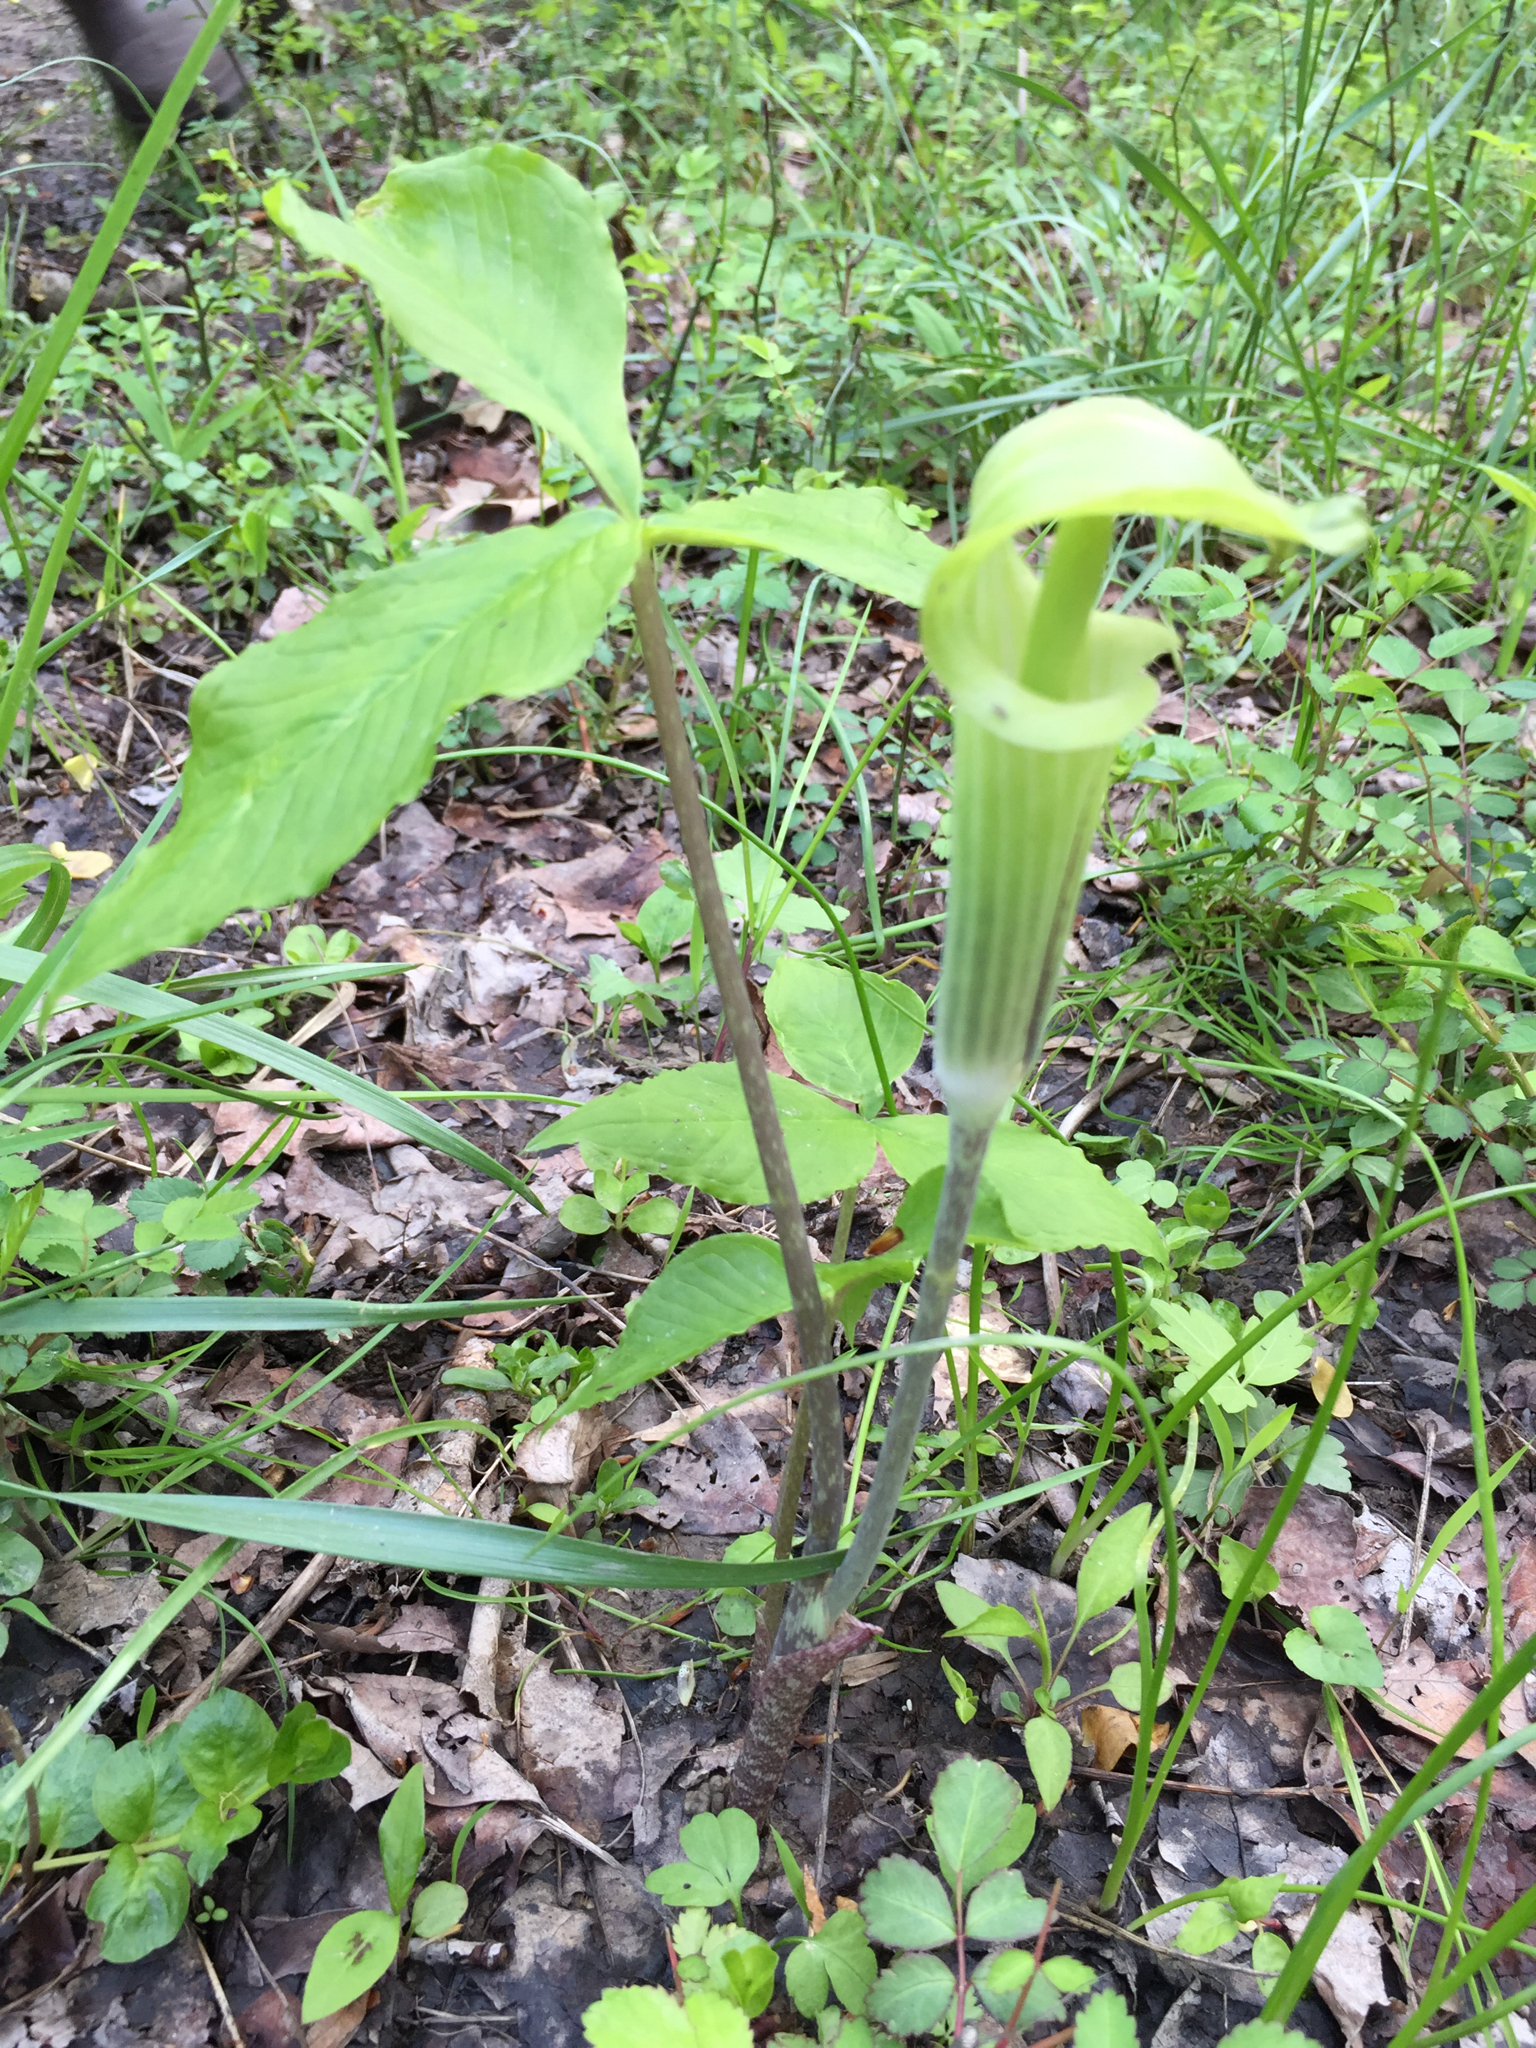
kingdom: Plantae
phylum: Tracheophyta
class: Liliopsida
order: Alismatales
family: Araceae
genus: Arisaema
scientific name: Arisaema triphyllum
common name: Jack-in-the-pulpit
